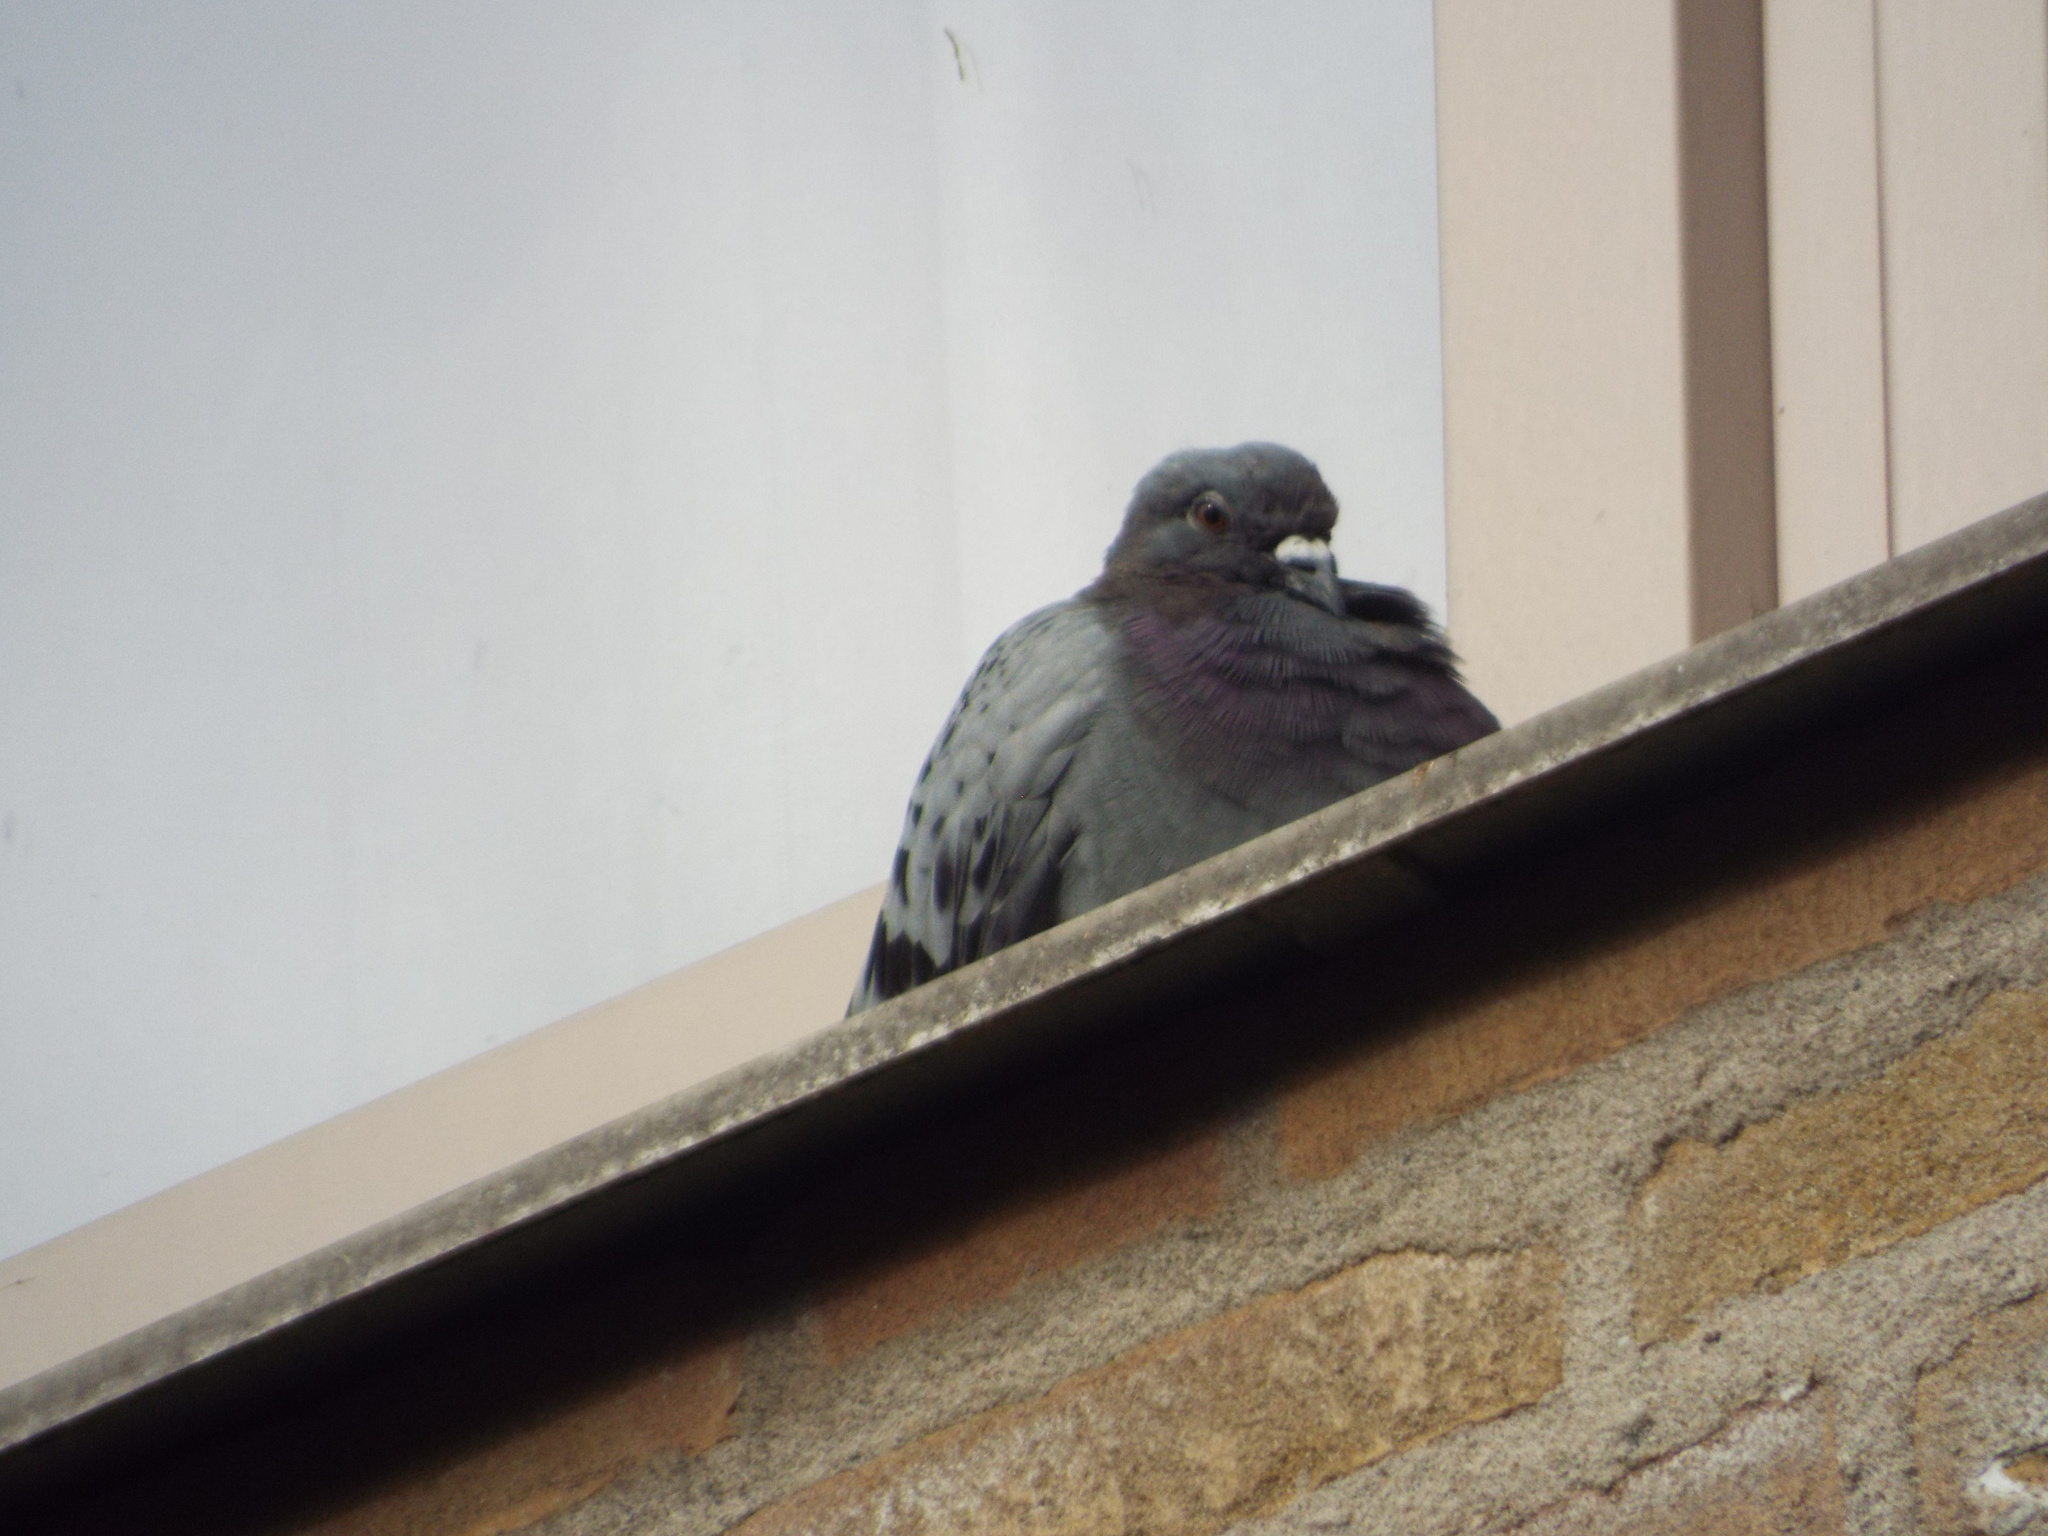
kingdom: Animalia
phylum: Chordata
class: Aves
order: Columbiformes
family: Columbidae
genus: Columba
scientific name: Columba livia
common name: Rock pigeon
